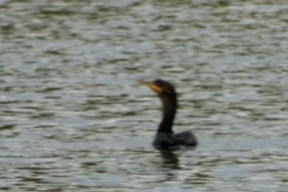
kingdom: Animalia
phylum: Chordata
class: Aves
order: Suliformes
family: Phalacrocoracidae
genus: Phalacrocorax
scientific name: Phalacrocorax auritus
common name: Double-crested cormorant
